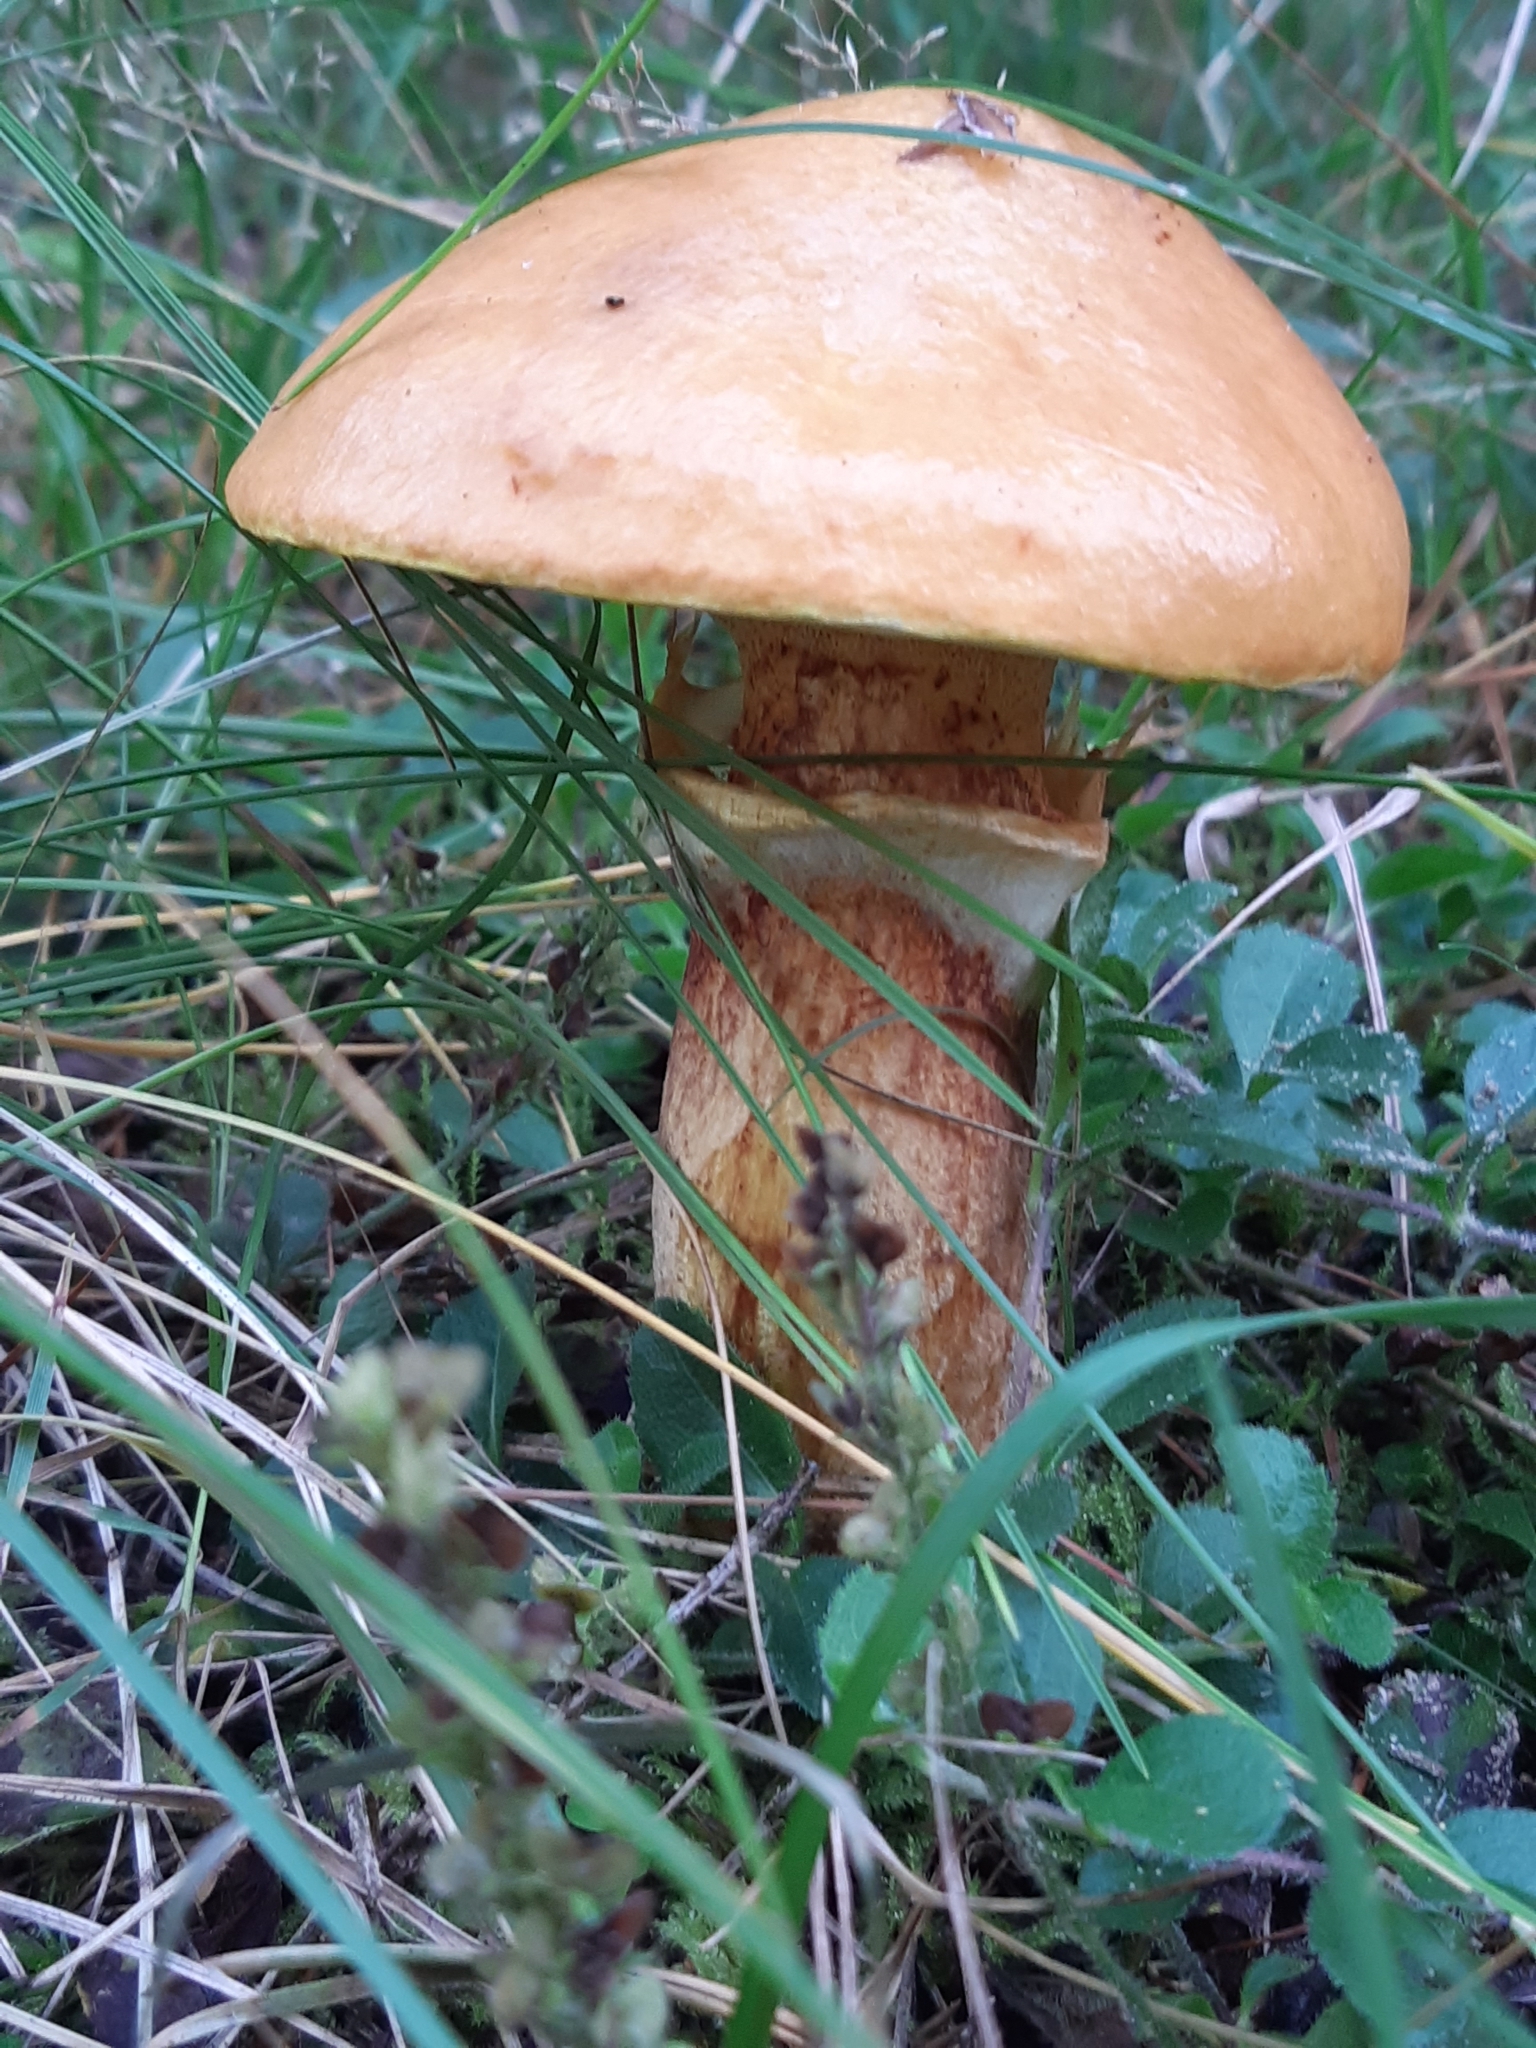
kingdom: Fungi
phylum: Basidiomycota
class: Agaricomycetes
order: Boletales
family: Suillaceae
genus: Suillus
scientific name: Suillus grevillei
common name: Larch bolete
